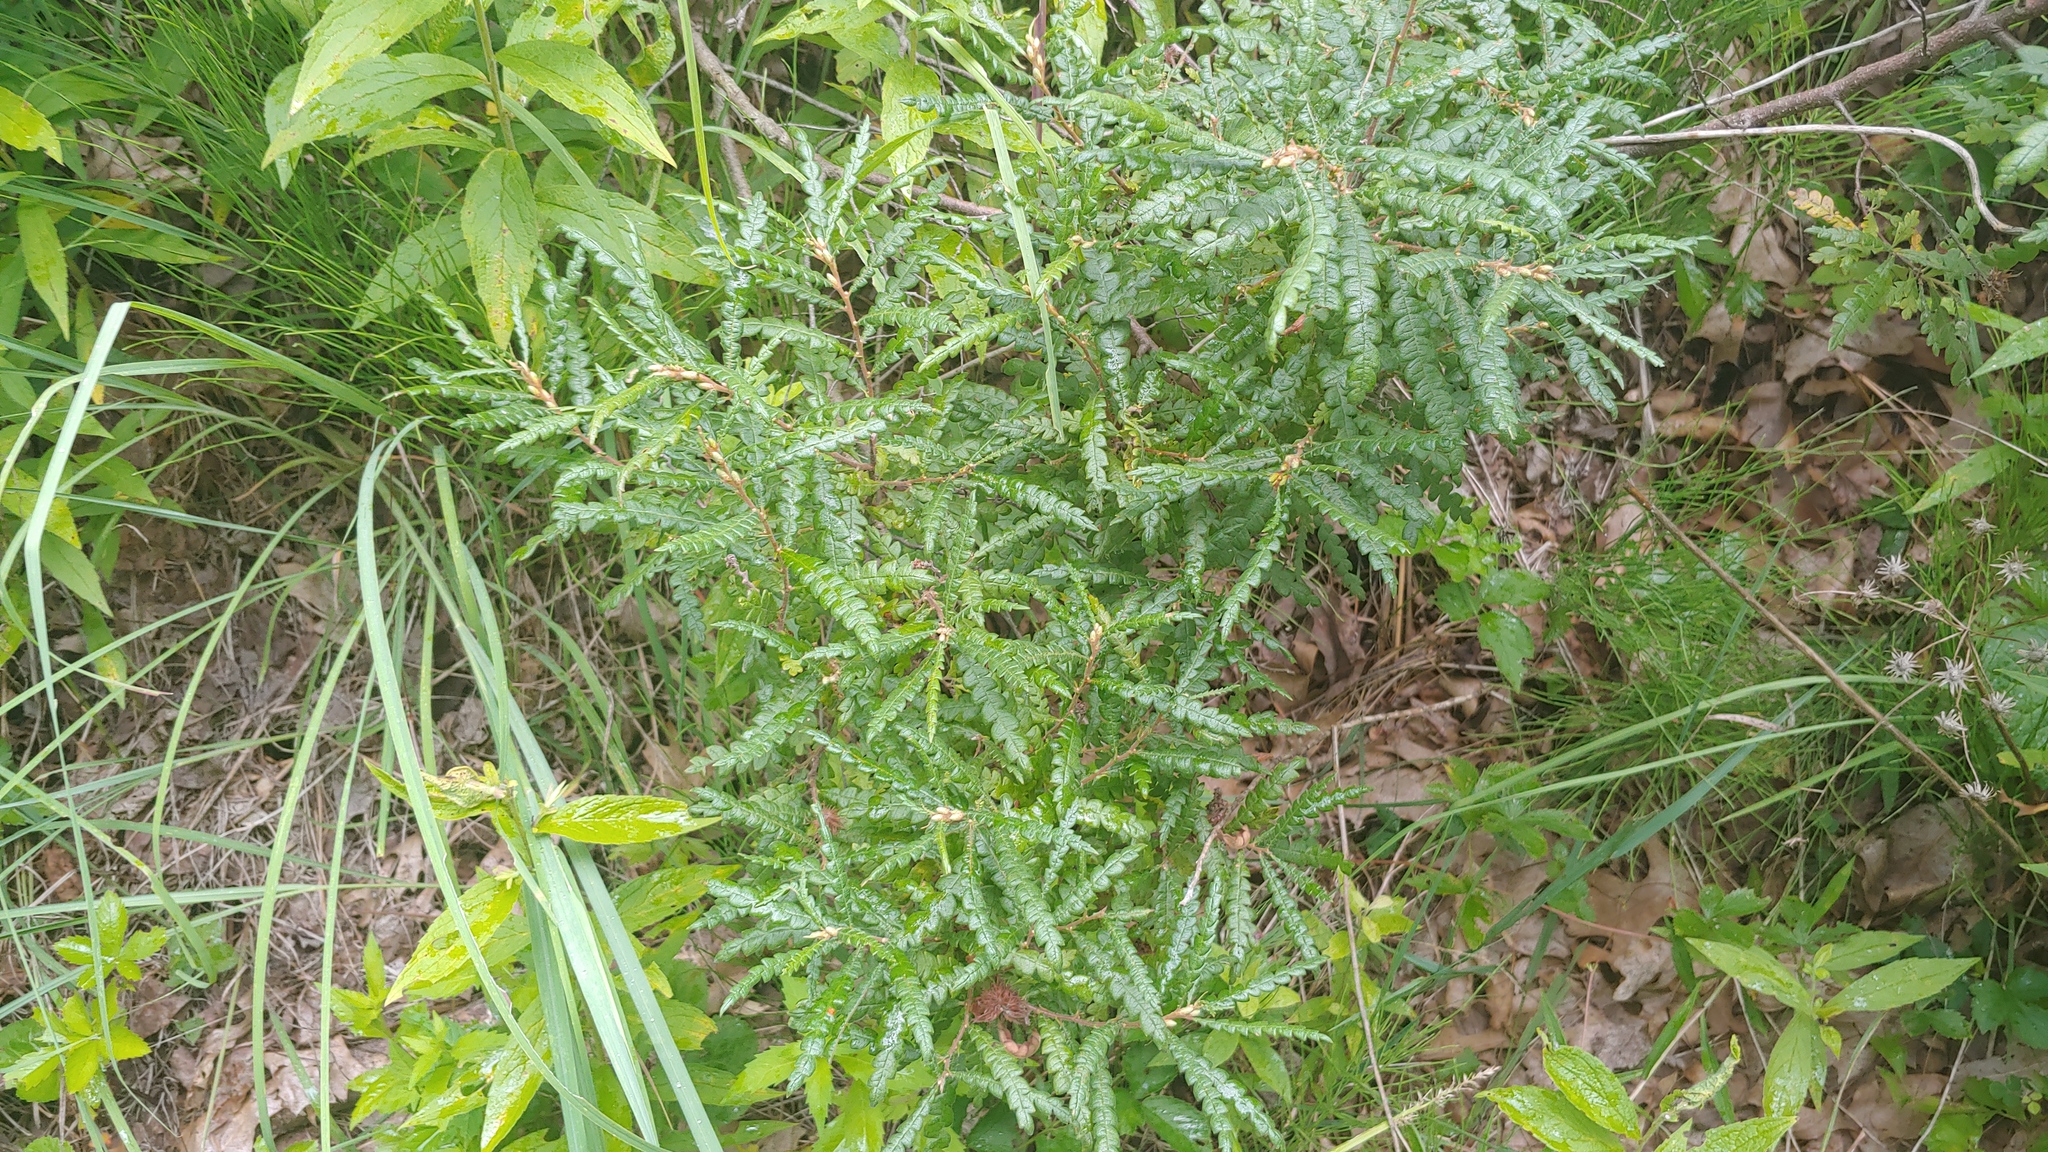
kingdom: Plantae
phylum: Tracheophyta
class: Magnoliopsida
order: Fagales
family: Myricaceae
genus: Comptonia
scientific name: Comptonia peregrina
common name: Sweet-fern
